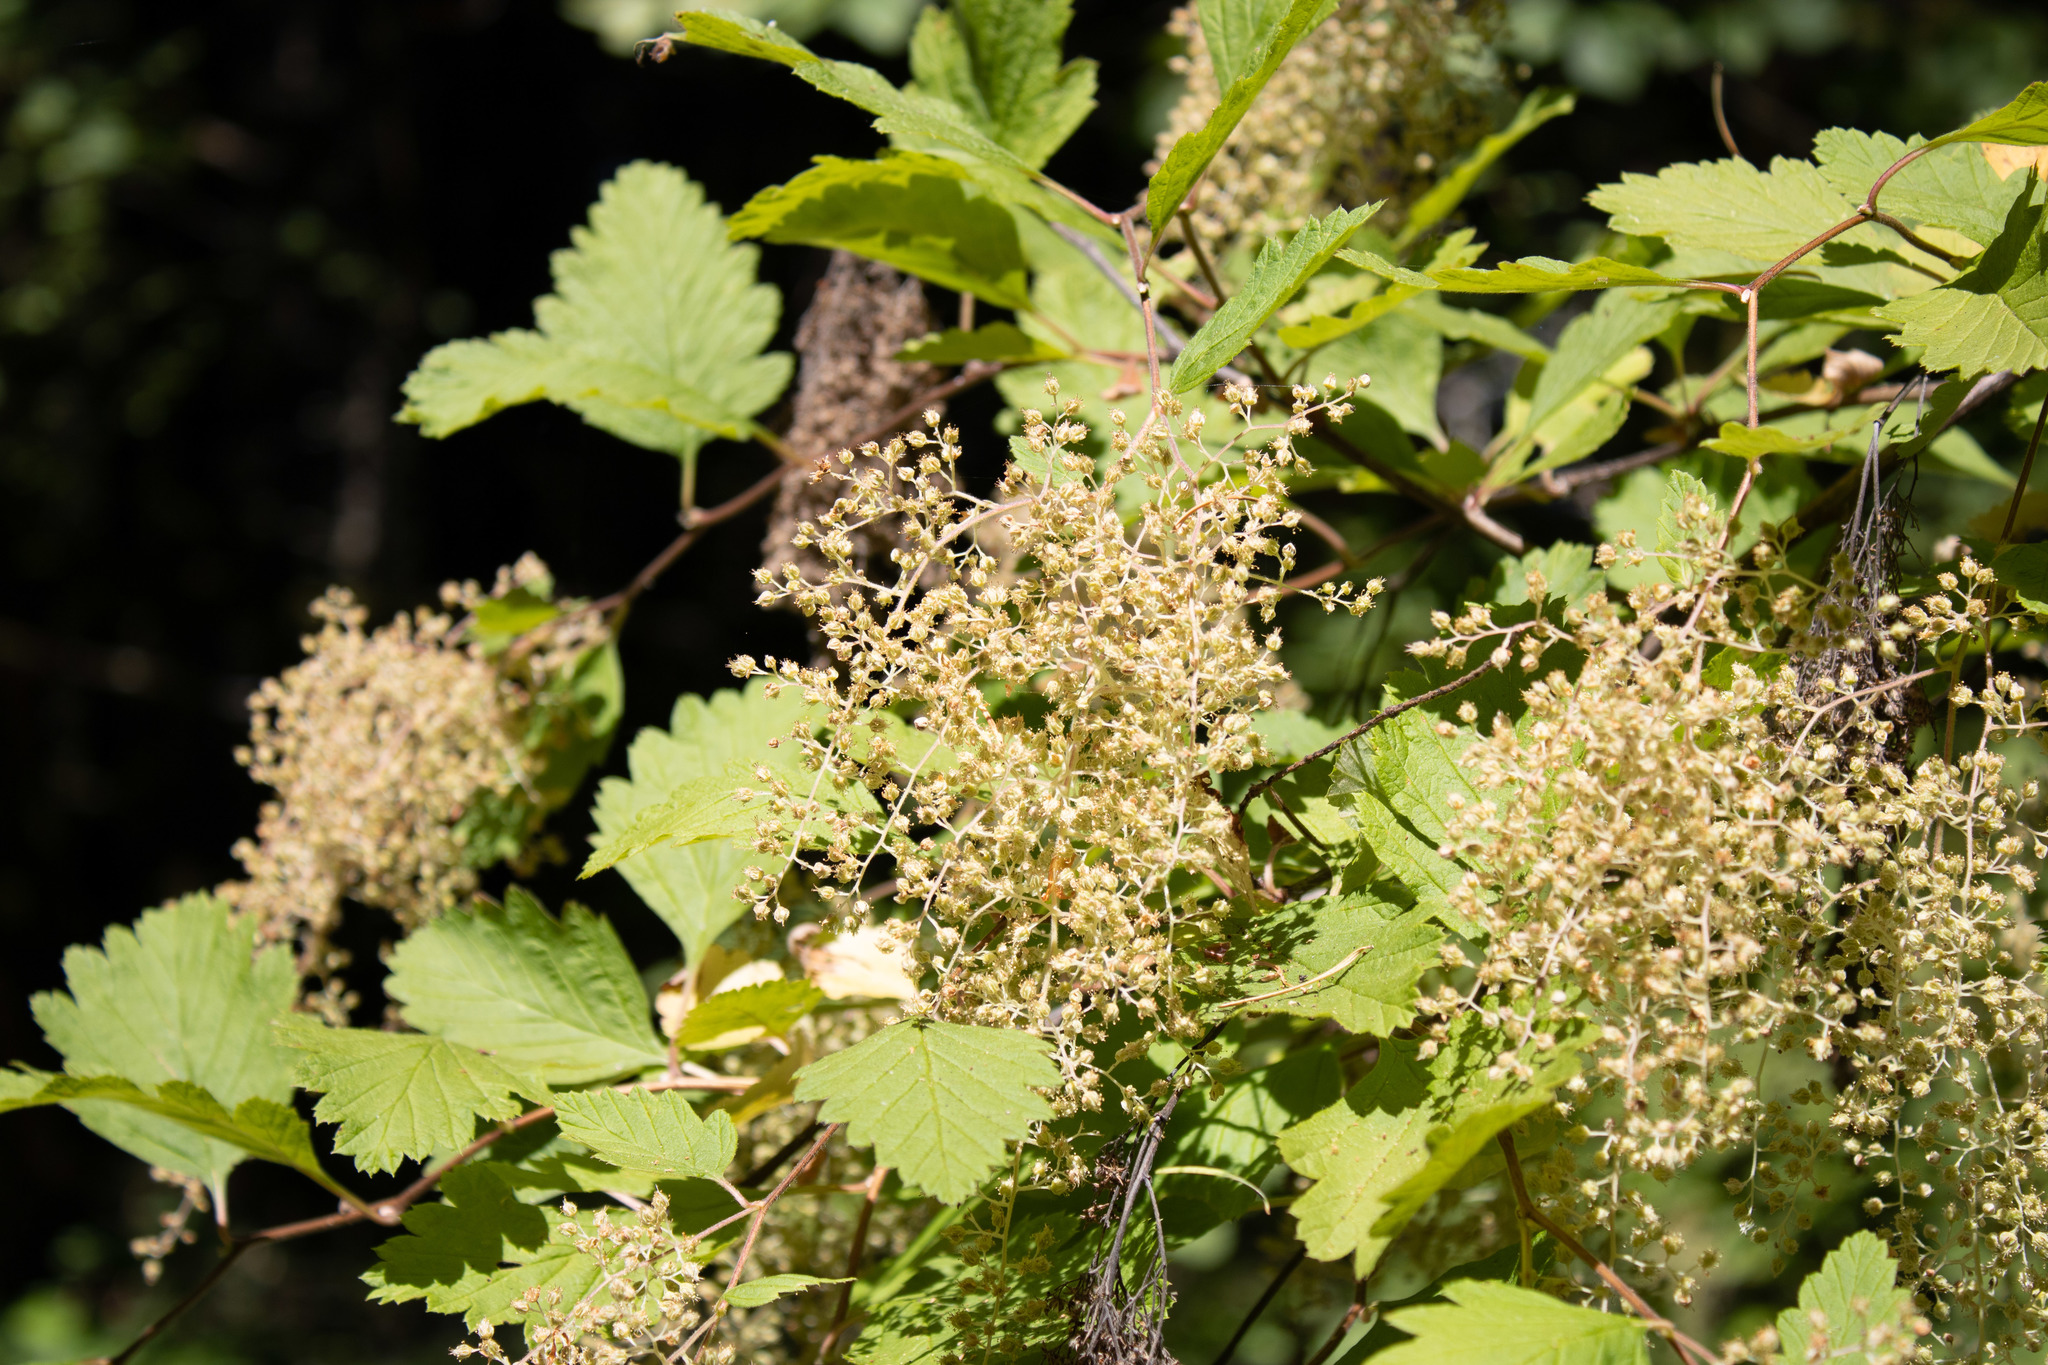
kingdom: Plantae
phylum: Tracheophyta
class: Magnoliopsida
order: Rosales
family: Rosaceae
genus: Holodiscus
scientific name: Holodiscus discolor
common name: Oceanspray
